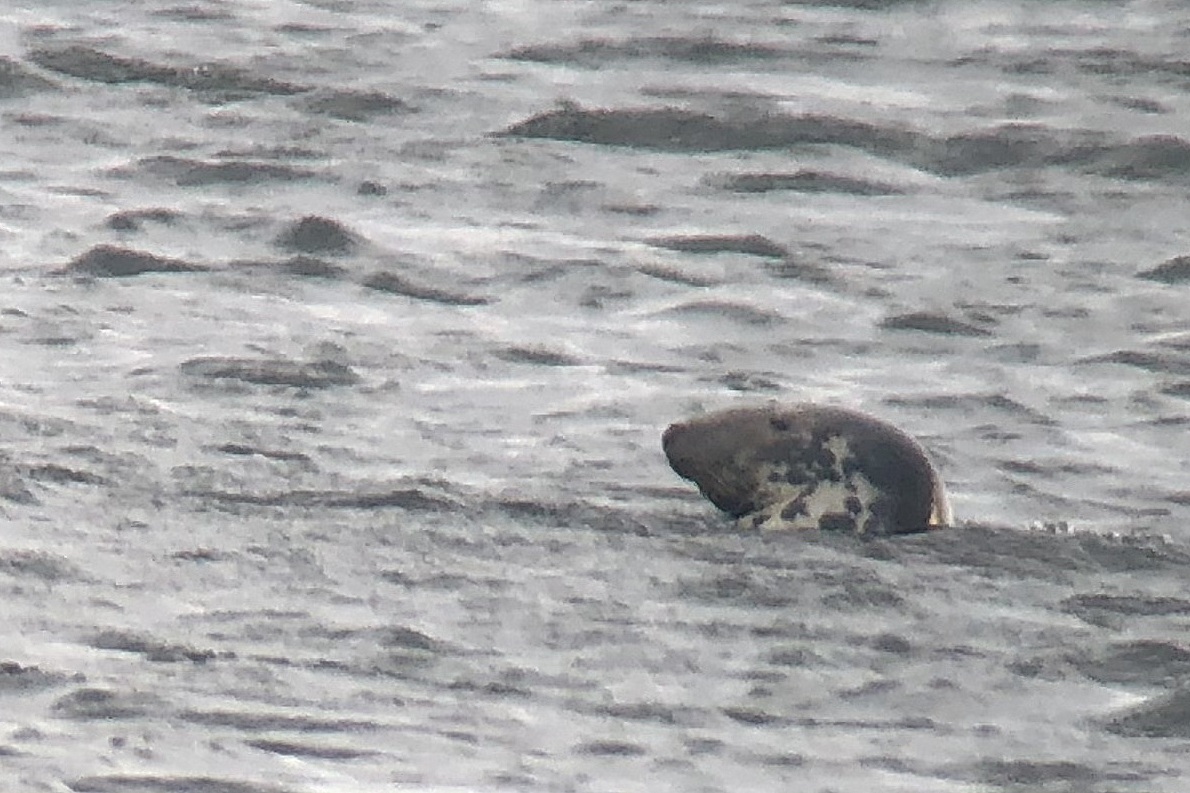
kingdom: Animalia
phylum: Chordata
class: Mammalia
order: Carnivora
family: Phocidae
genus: Halichoerus
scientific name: Halichoerus grypus
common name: Grey seal
